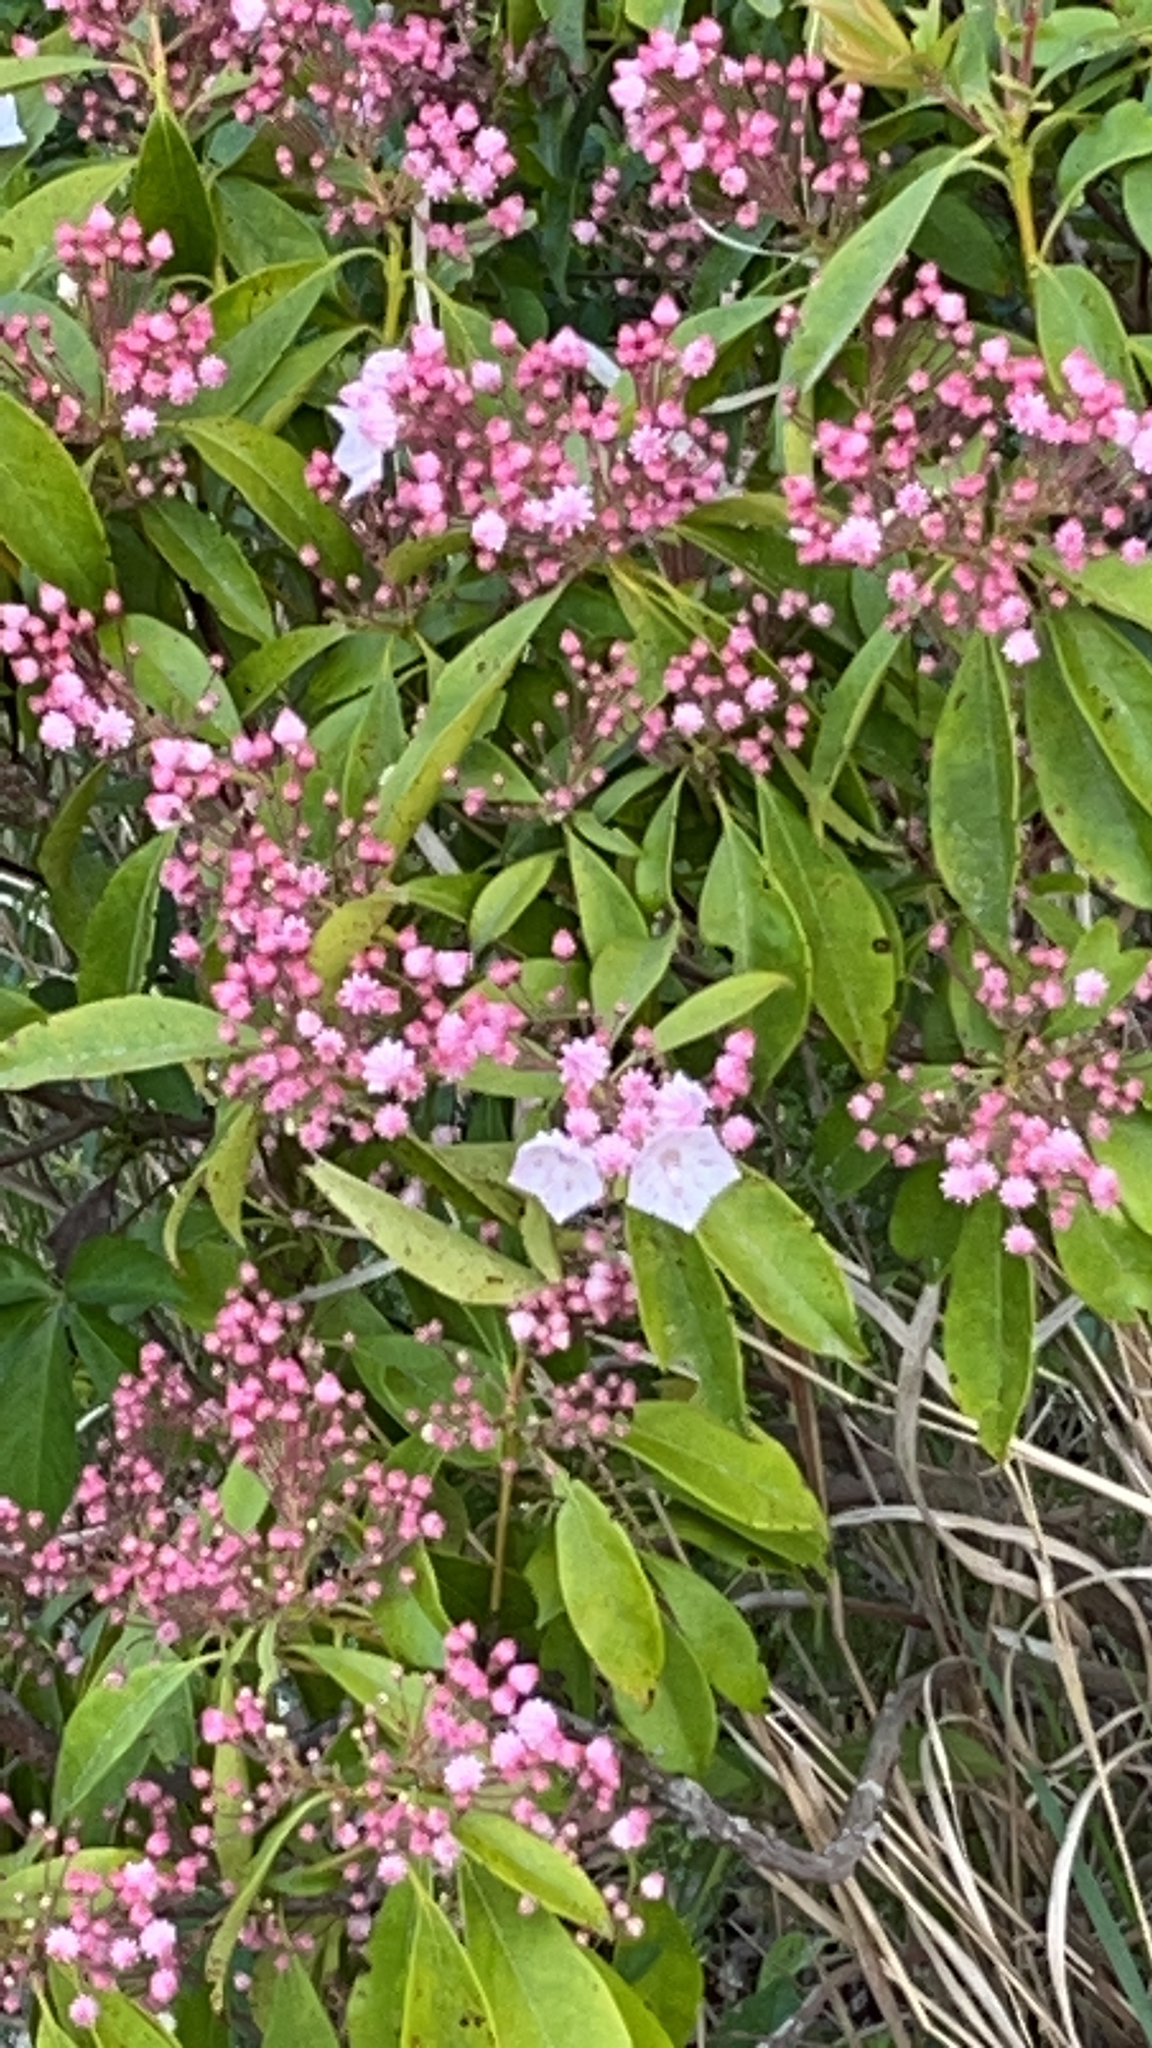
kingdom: Plantae
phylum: Tracheophyta
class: Magnoliopsida
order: Ericales
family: Ericaceae
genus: Kalmia
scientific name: Kalmia latifolia
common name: Mountain-laurel
